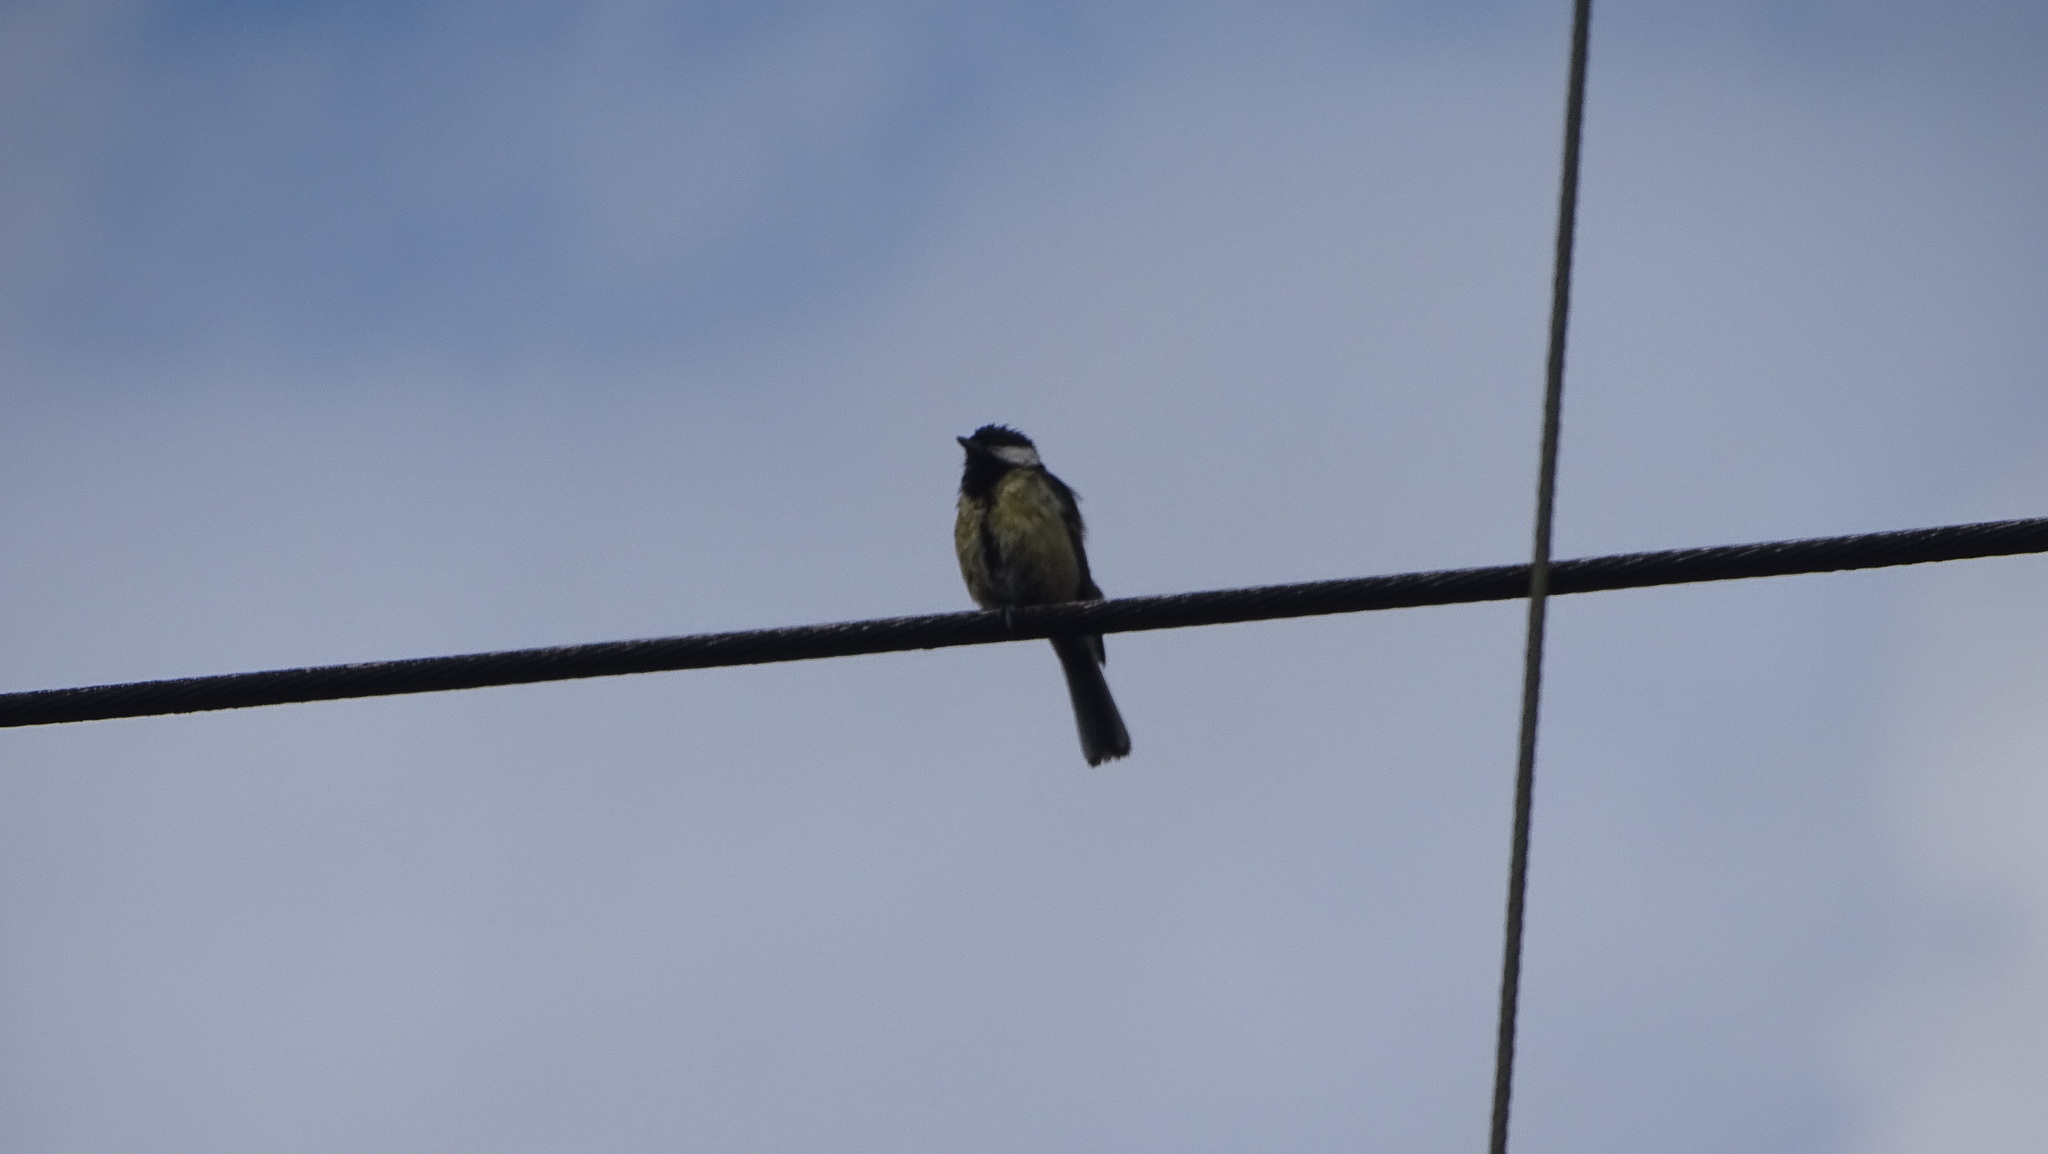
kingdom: Animalia
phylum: Chordata
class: Aves
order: Passeriformes
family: Paridae
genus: Parus
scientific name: Parus major
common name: Great tit
